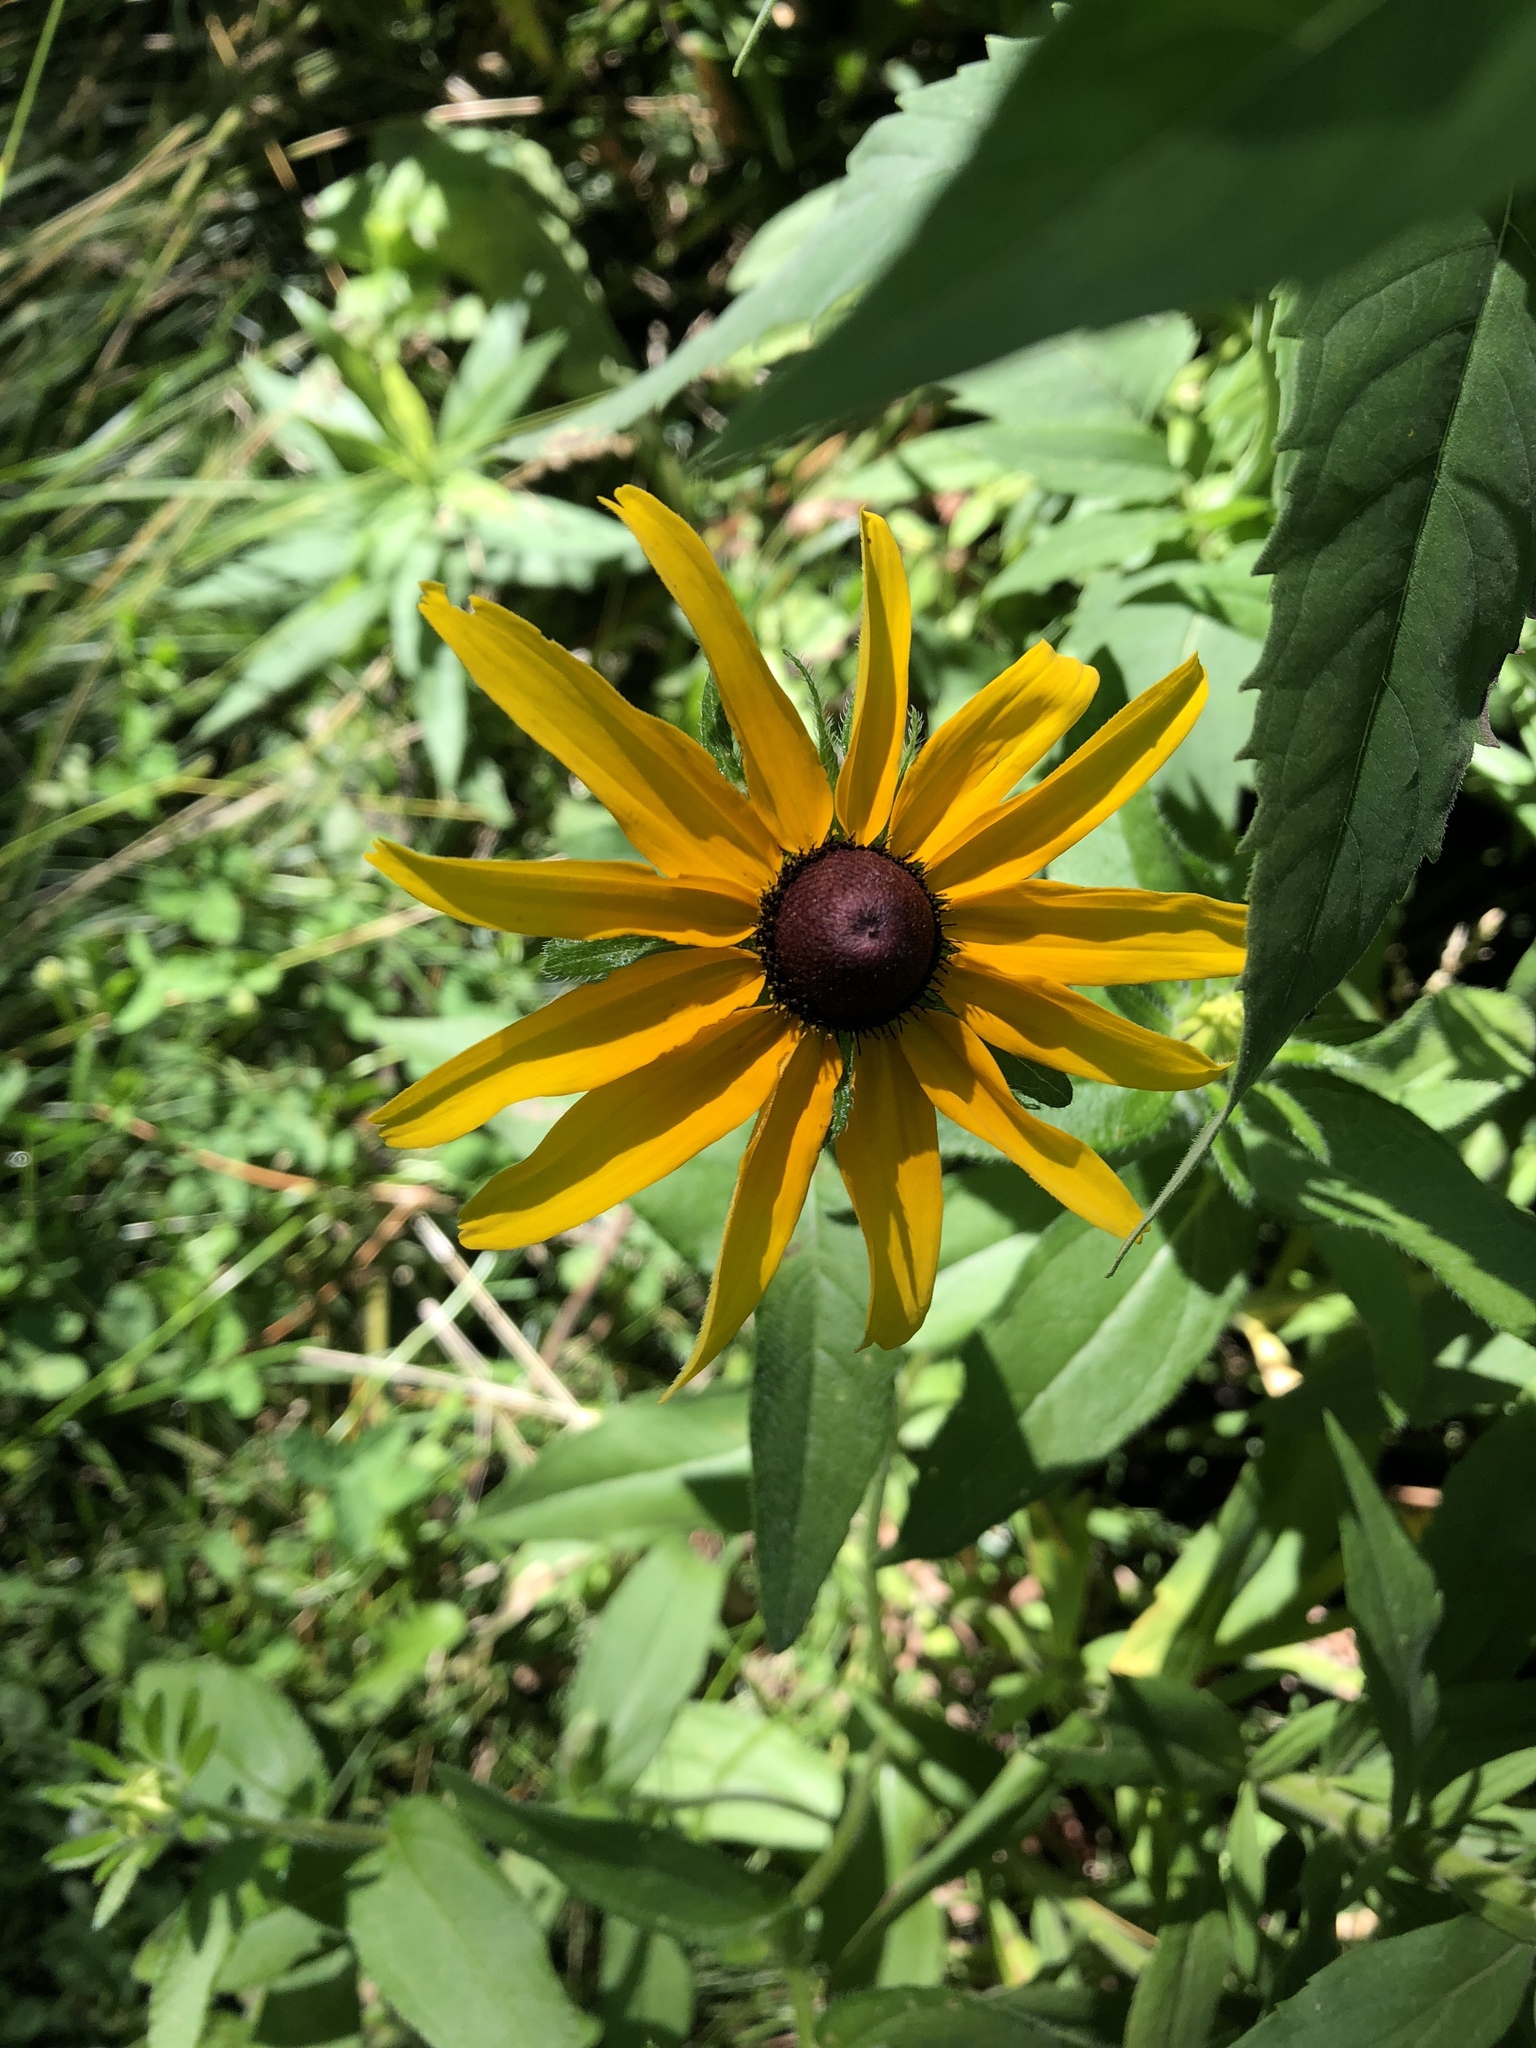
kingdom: Plantae
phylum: Tracheophyta
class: Magnoliopsida
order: Asterales
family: Asteraceae
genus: Rudbeckia
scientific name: Rudbeckia hirta
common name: Black-eyed-susan
